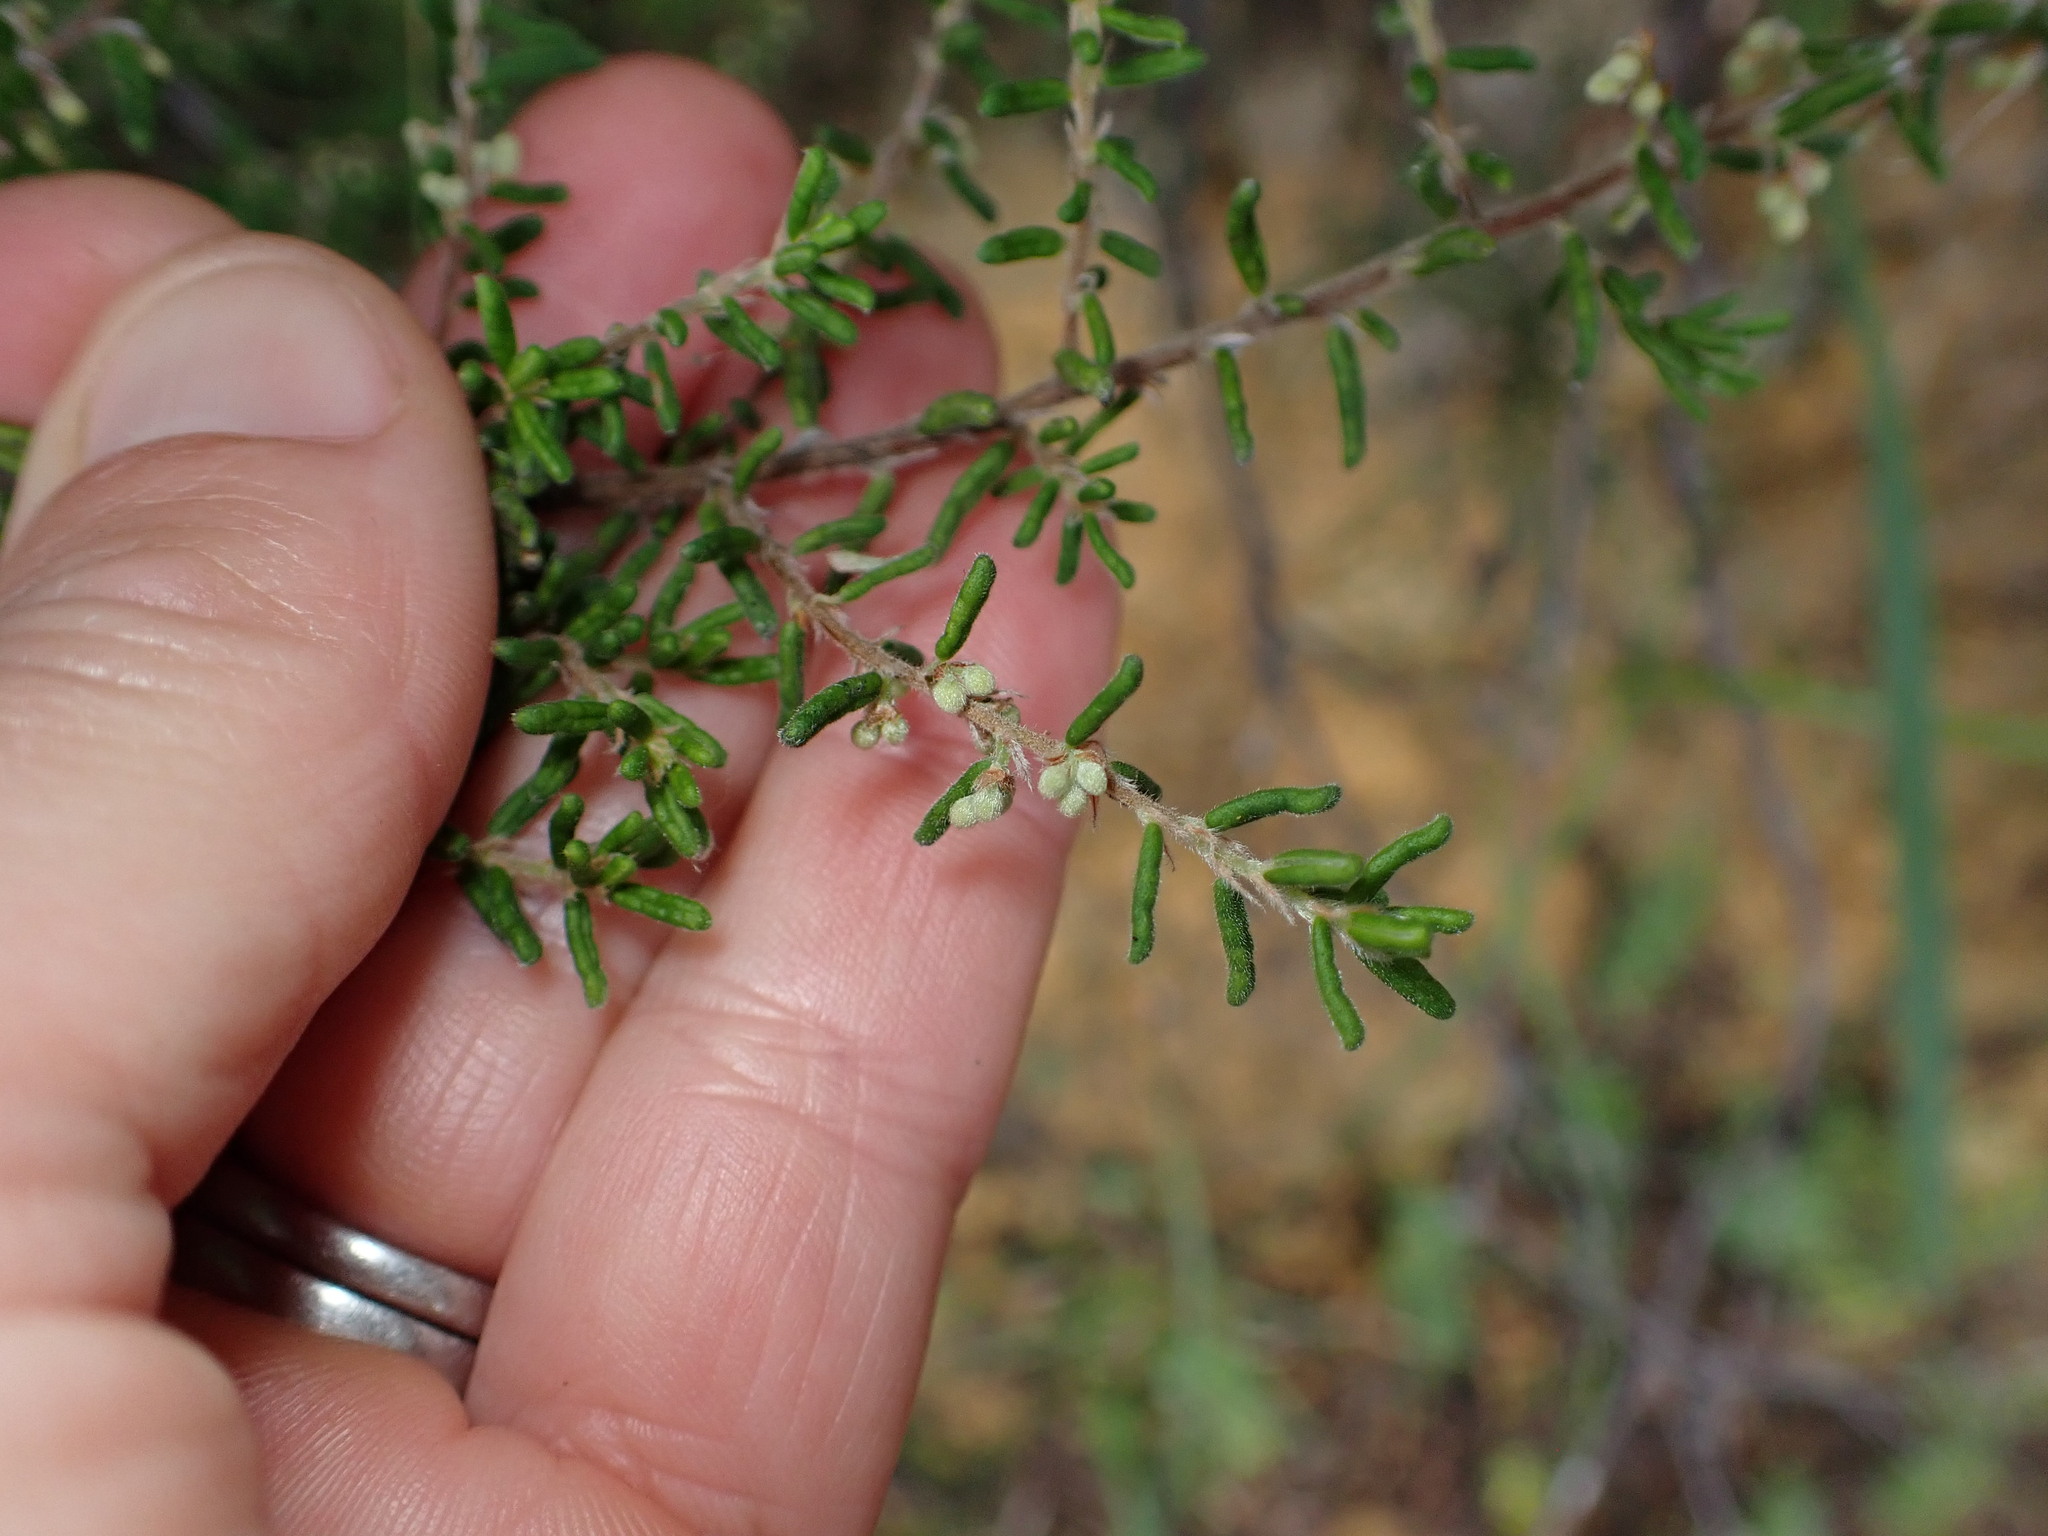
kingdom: Plantae
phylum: Tracheophyta
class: Magnoliopsida
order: Rosales
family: Rhamnaceae
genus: Pomaderris
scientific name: Pomaderris amoena
